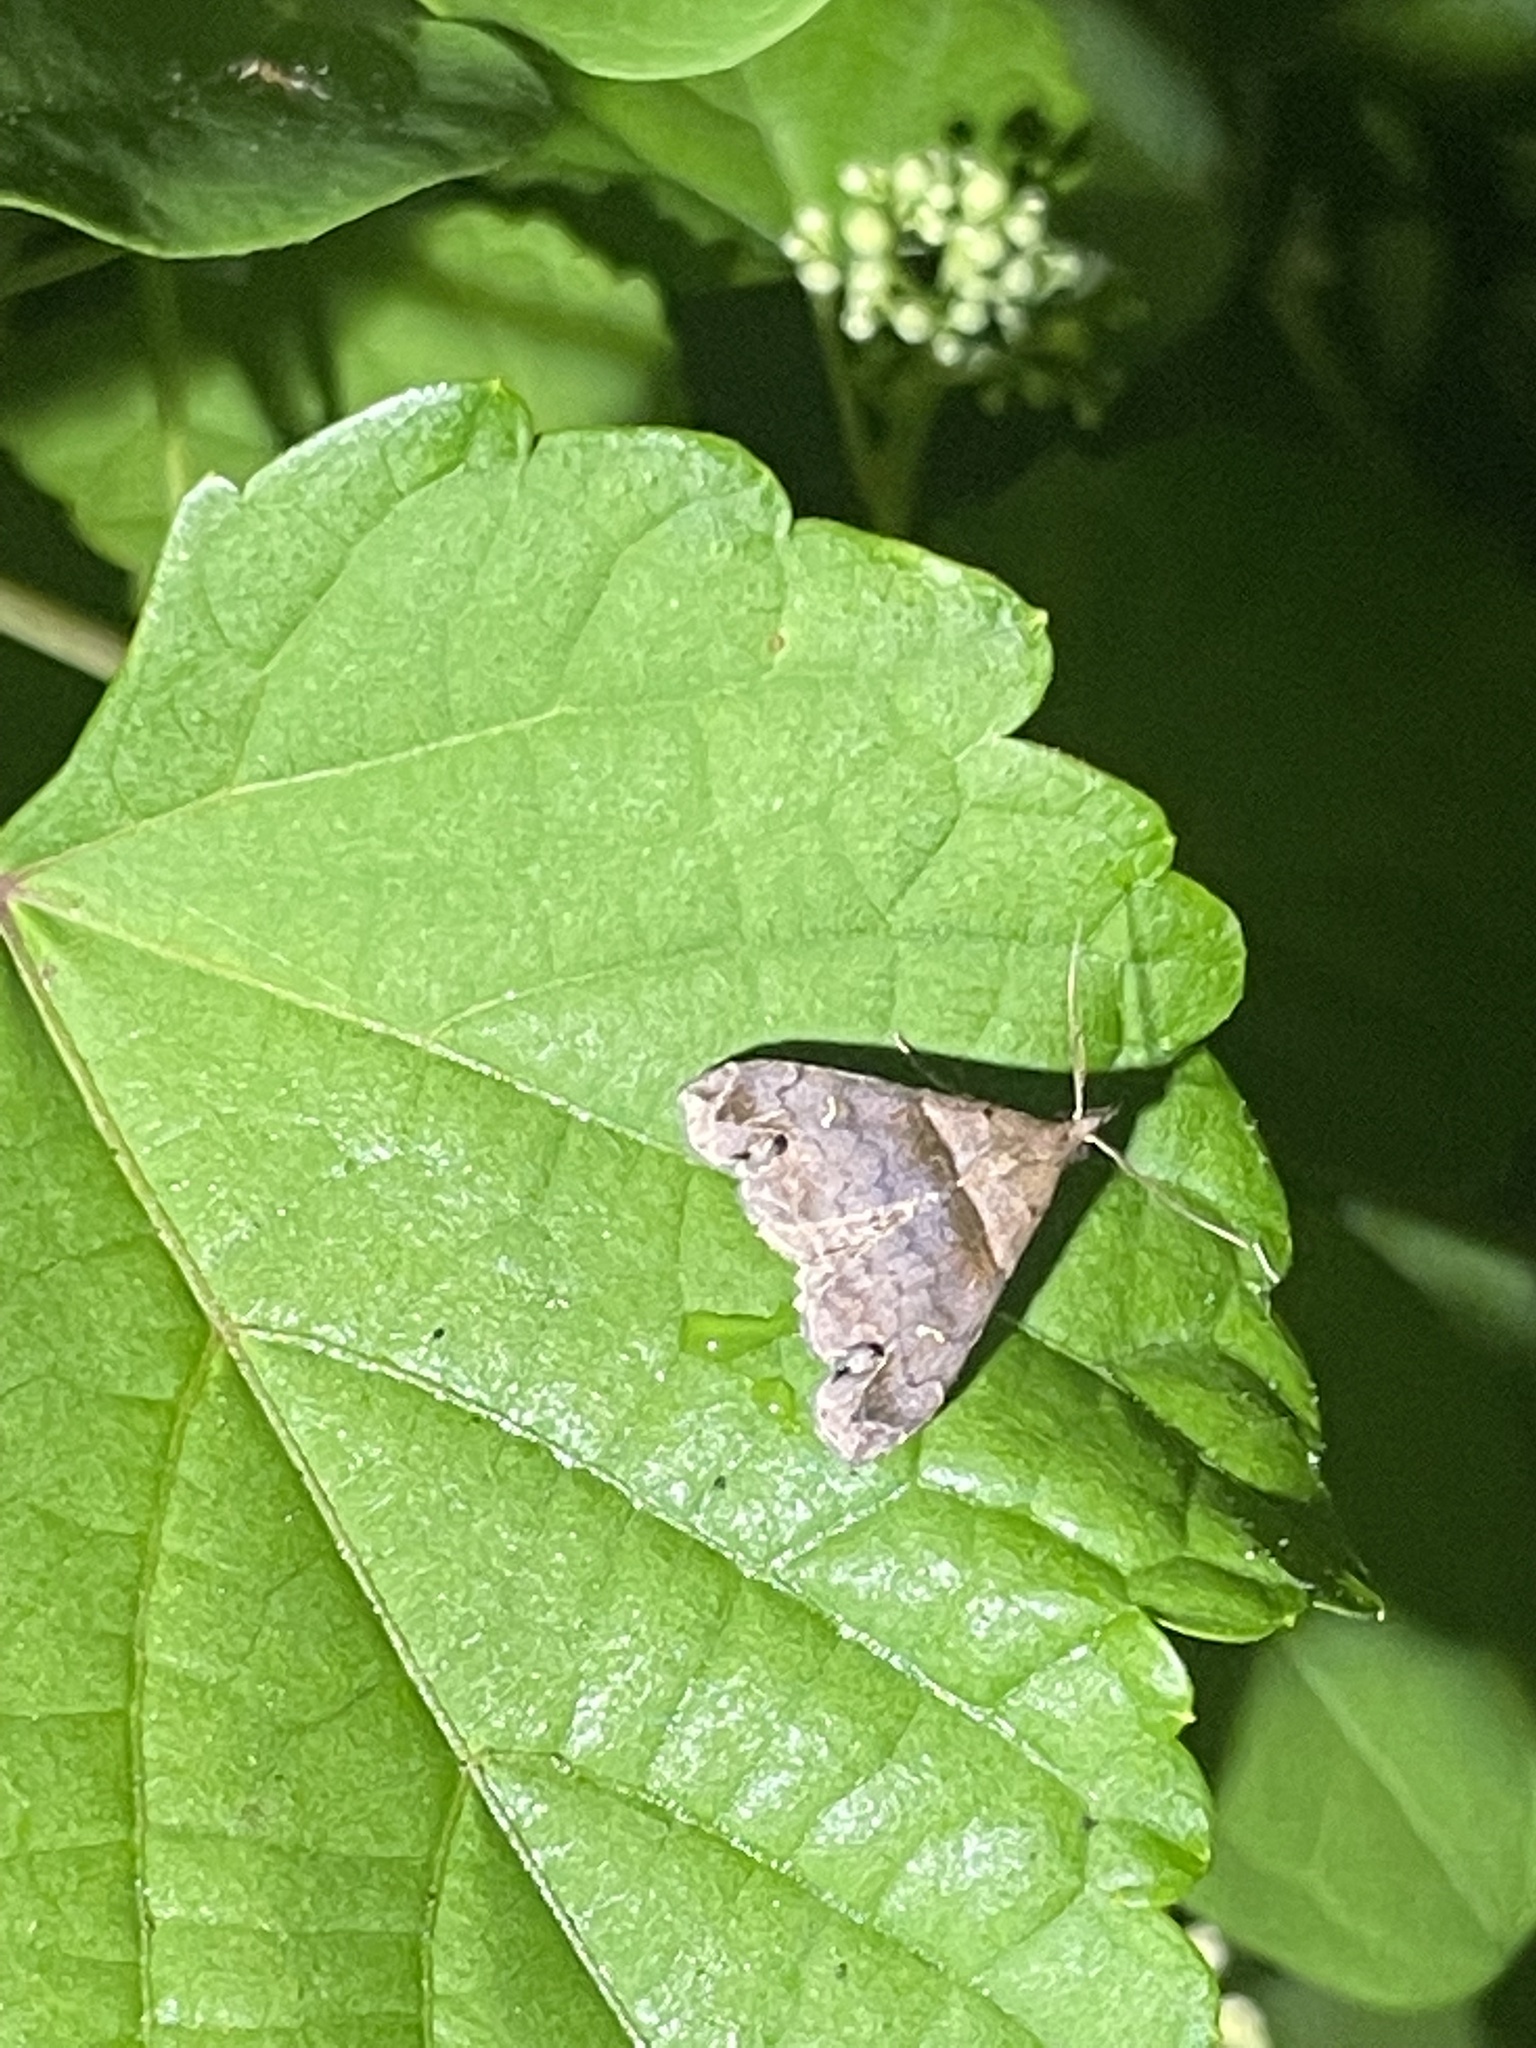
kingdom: Animalia
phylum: Arthropoda
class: Insecta
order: Lepidoptera
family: Erebidae
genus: Lascoria
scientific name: Lascoria ambigualis
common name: Ambiguous moth
